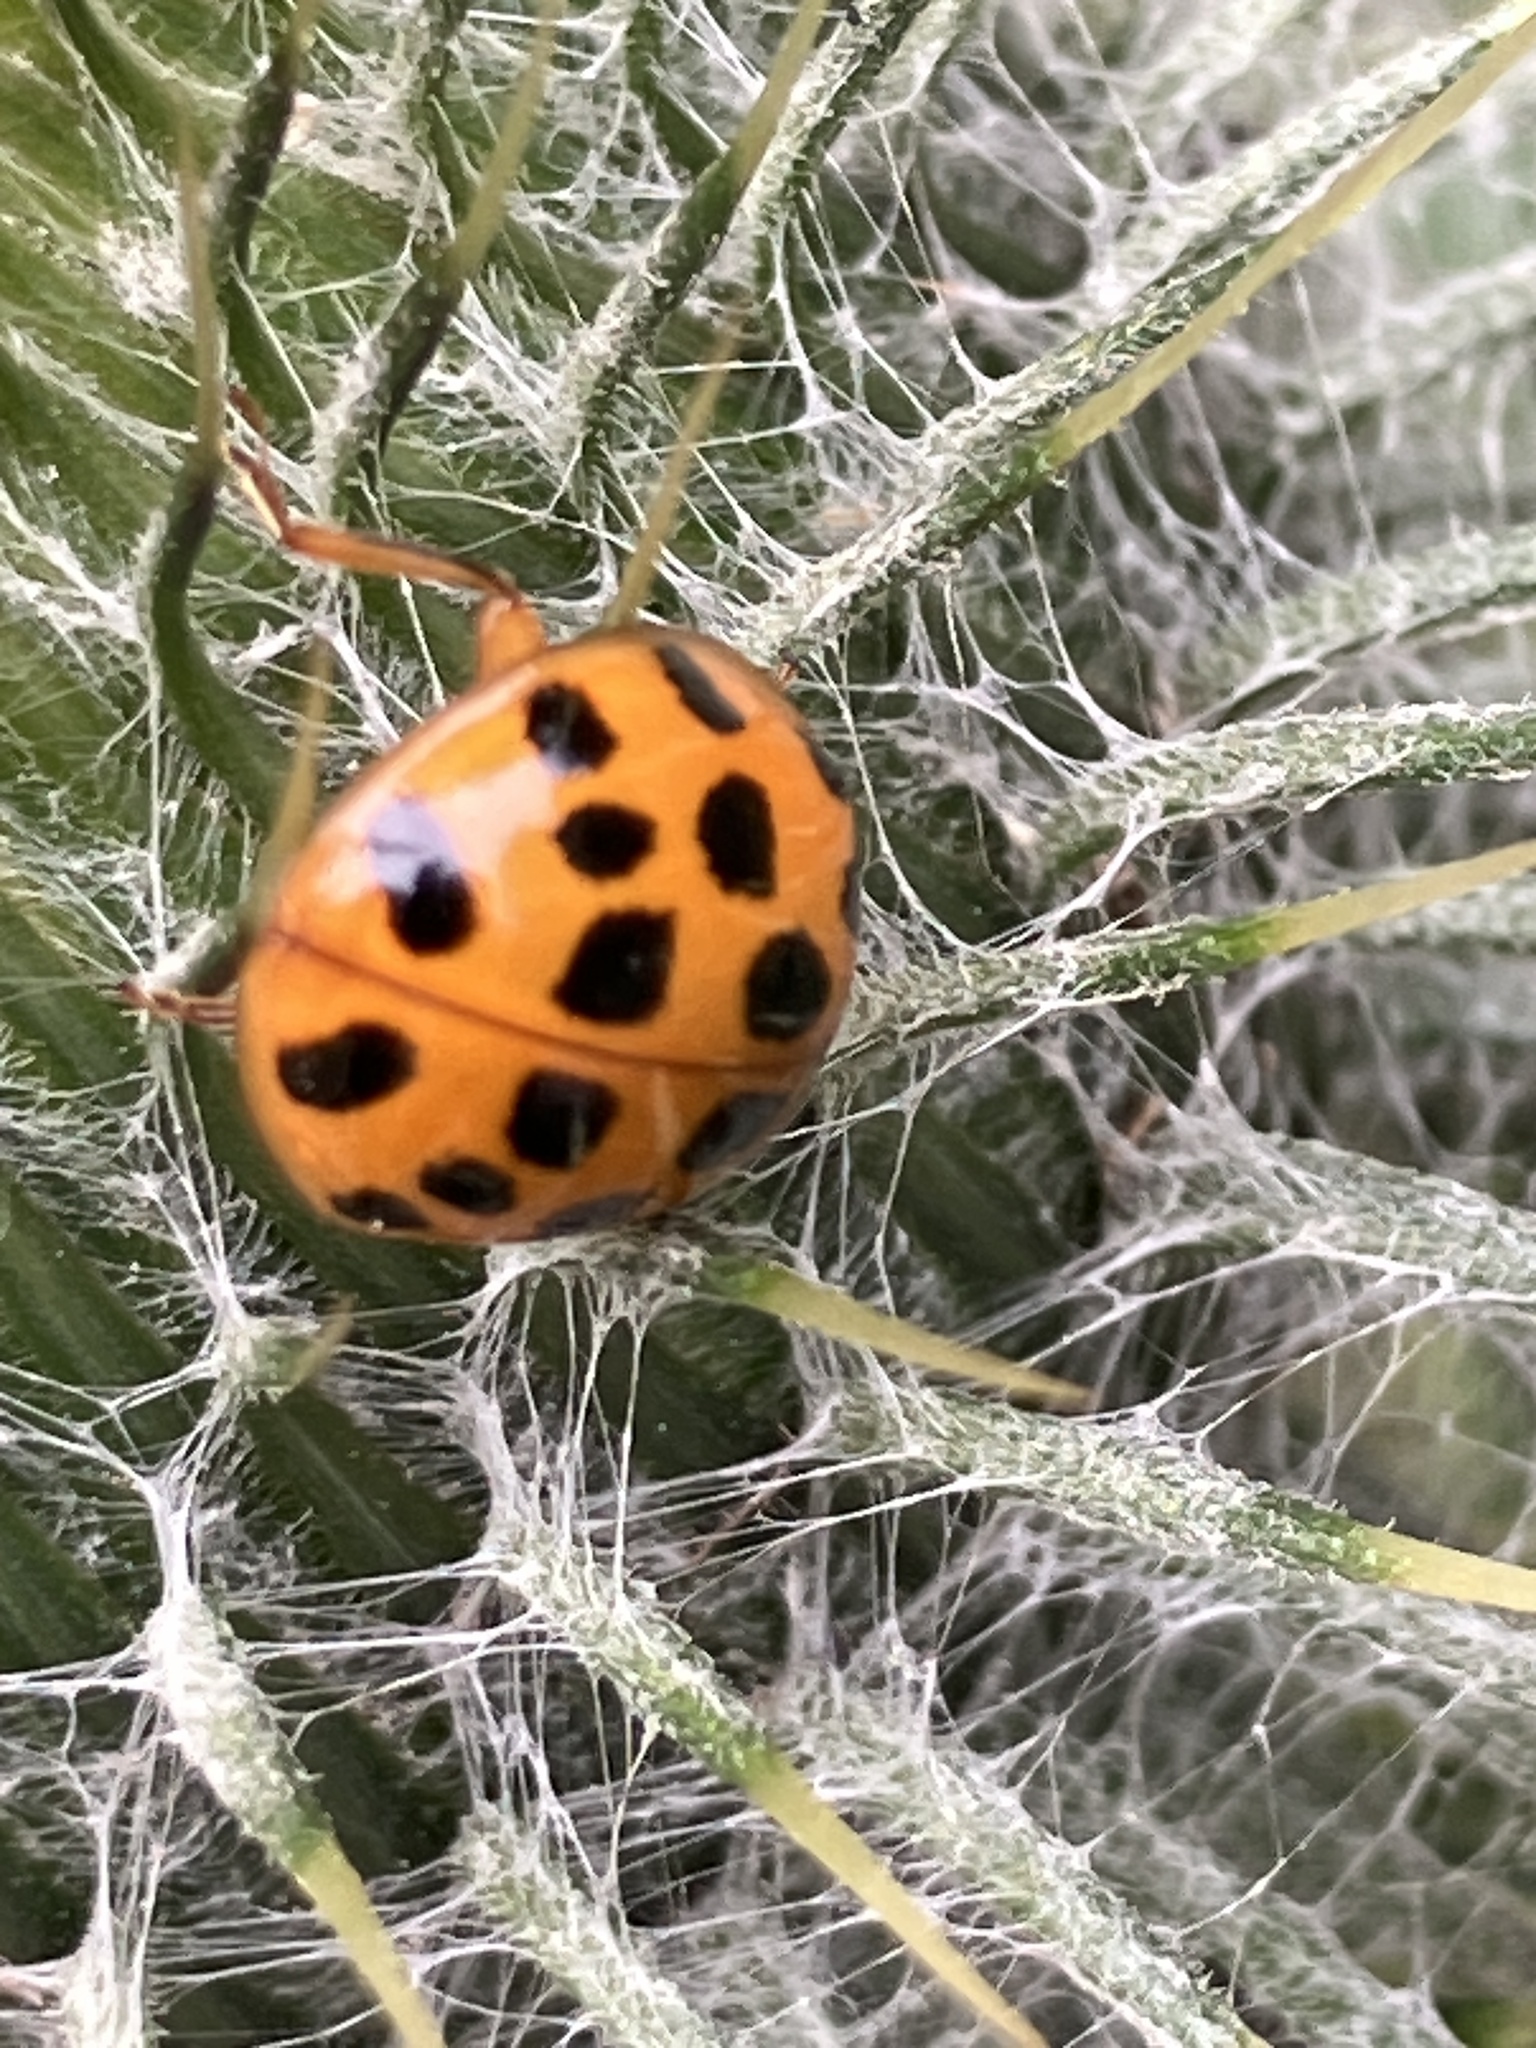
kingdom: Animalia
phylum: Arthropoda
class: Insecta
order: Coleoptera
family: Coccinellidae
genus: Harmonia
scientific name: Harmonia axyridis
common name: Harlequin ladybird
